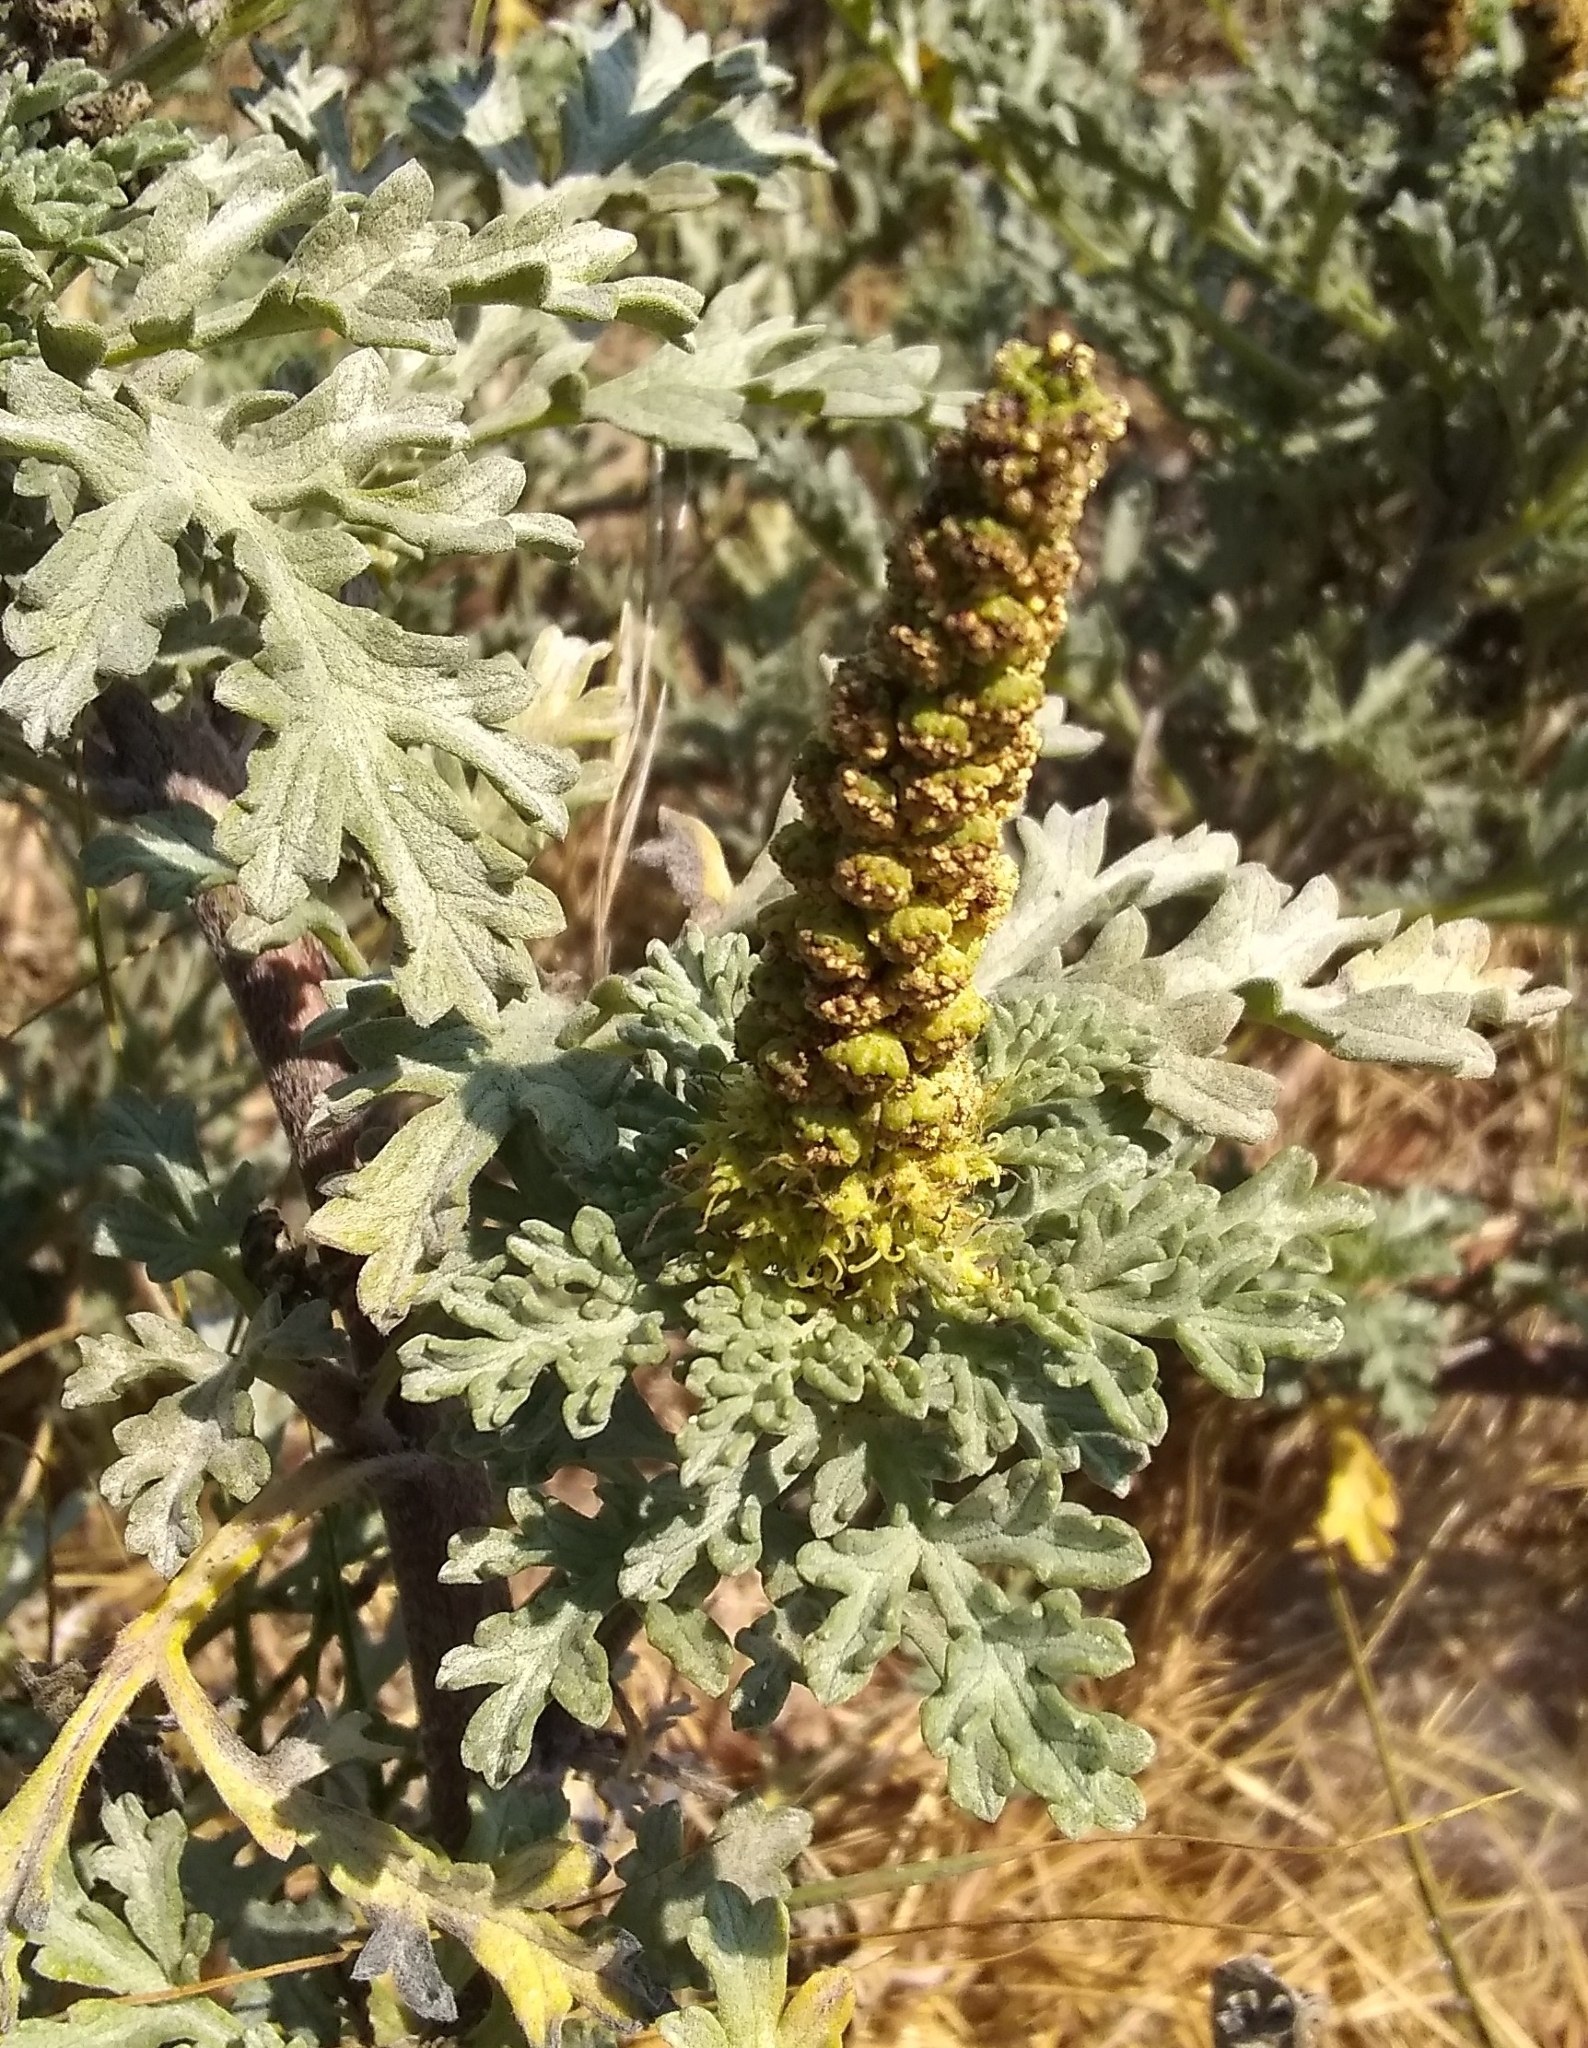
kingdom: Plantae
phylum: Tracheophyta
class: Magnoliopsida
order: Asterales
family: Asteraceae
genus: Ambrosia
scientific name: Ambrosia chamissonis
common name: Beachbur
